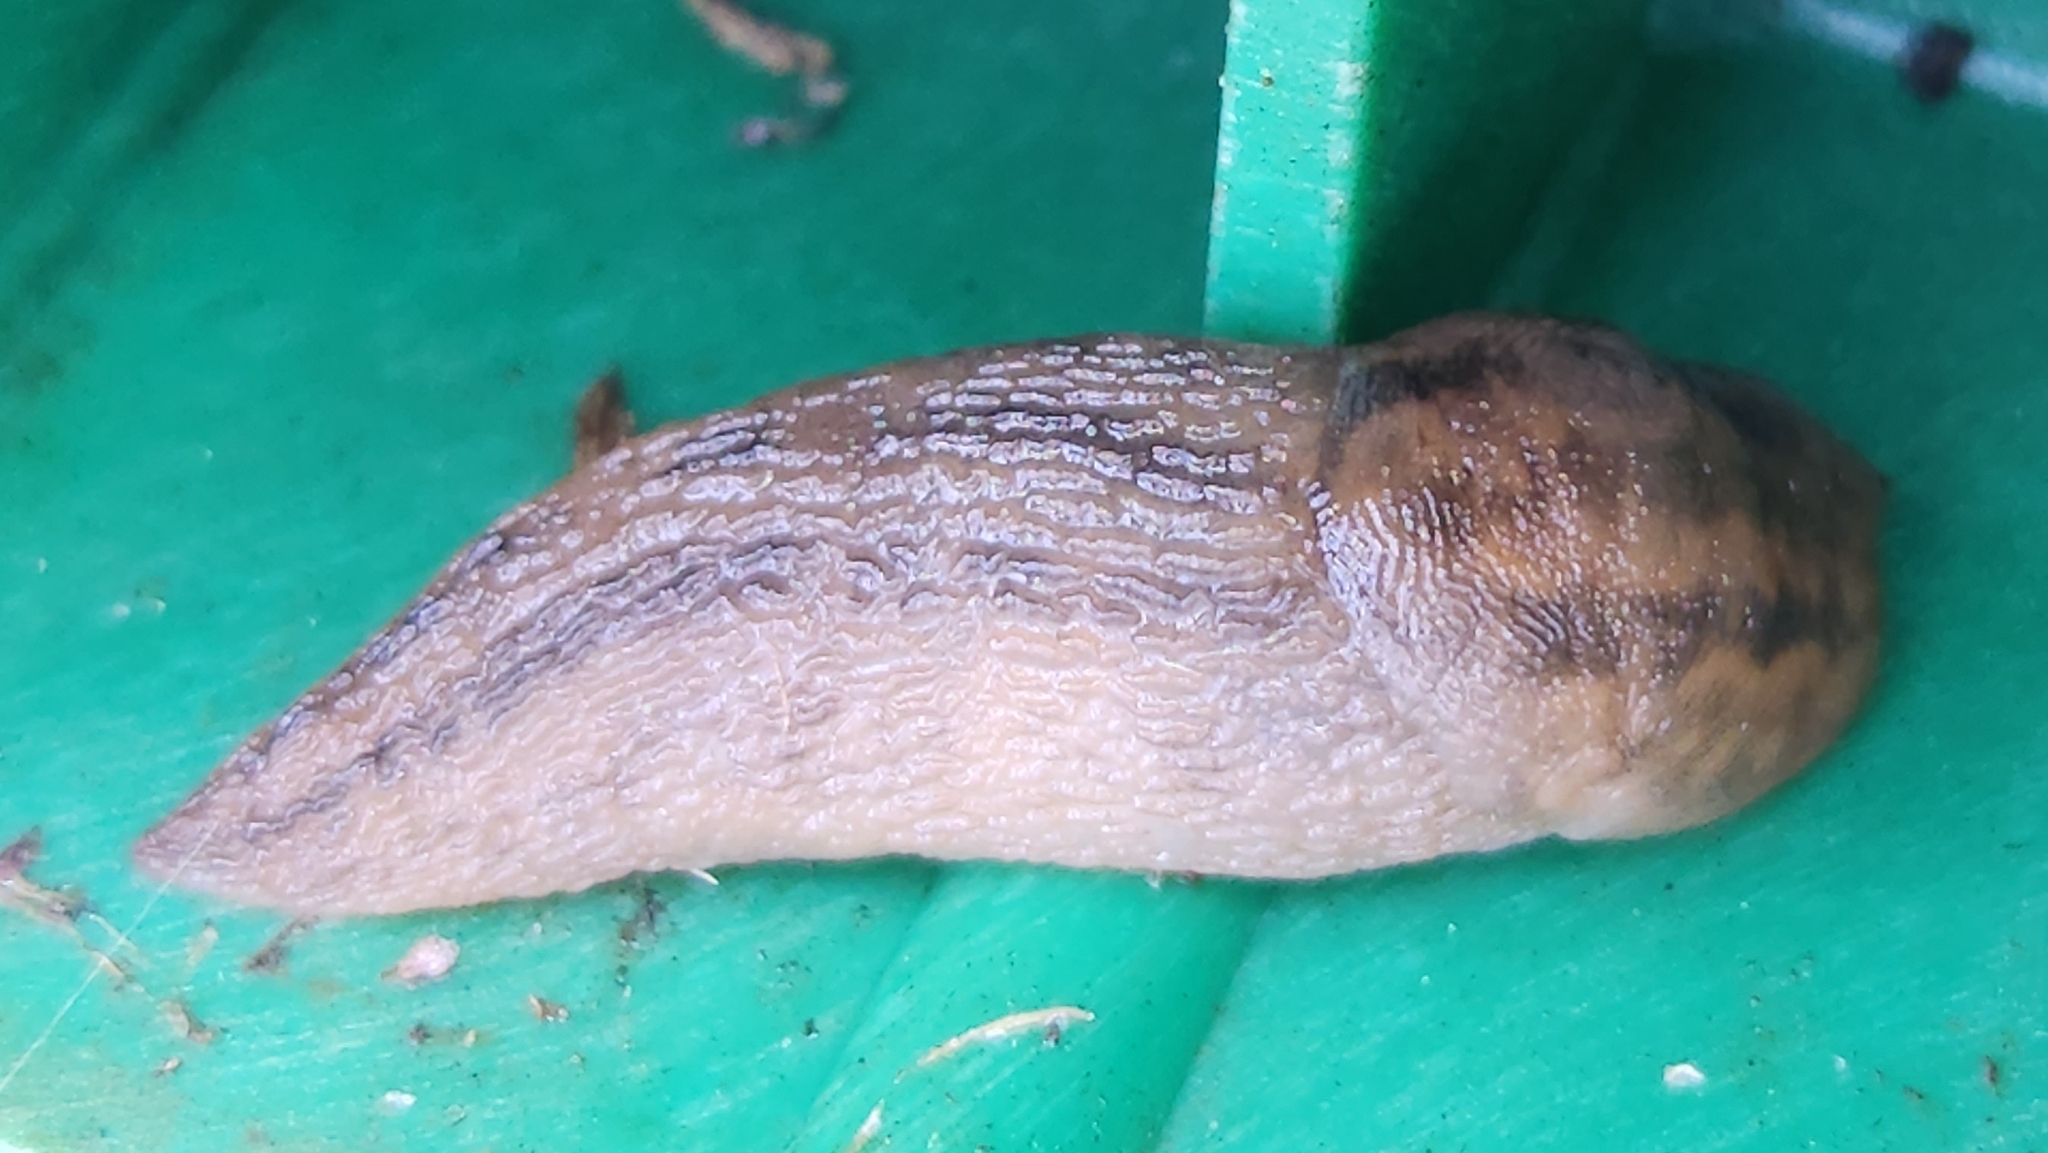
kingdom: Animalia
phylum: Mollusca
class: Gastropoda
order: Stylommatophora
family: Limacidae
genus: Ambigolimax
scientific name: Ambigolimax
